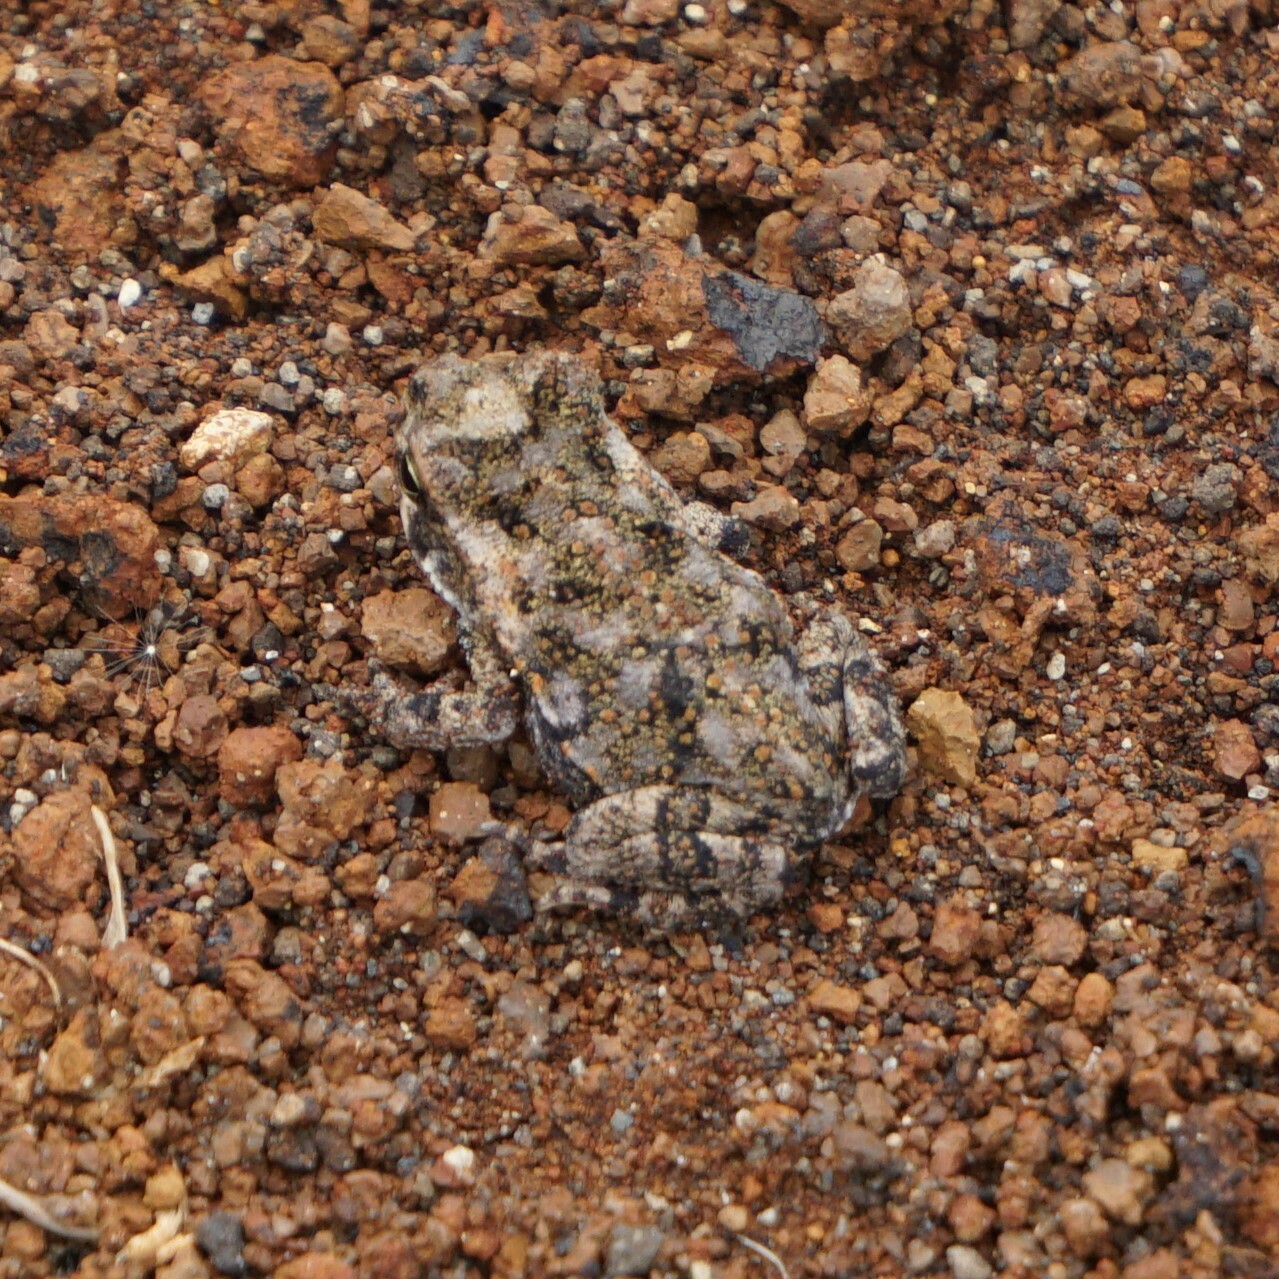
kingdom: Animalia
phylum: Chordata
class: Amphibia
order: Anura
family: Bufonidae
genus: Rhinella
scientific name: Rhinella horribilis
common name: Mesoamerican cane toad
